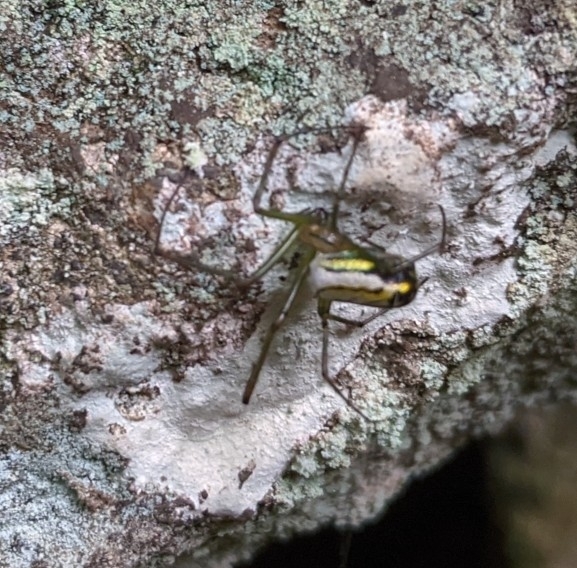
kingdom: Animalia
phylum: Arthropoda
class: Arachnida
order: Araneae
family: Tetragnathidae
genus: Leucauge
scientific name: Leucauge venusta
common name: Longjawed orb weavers
